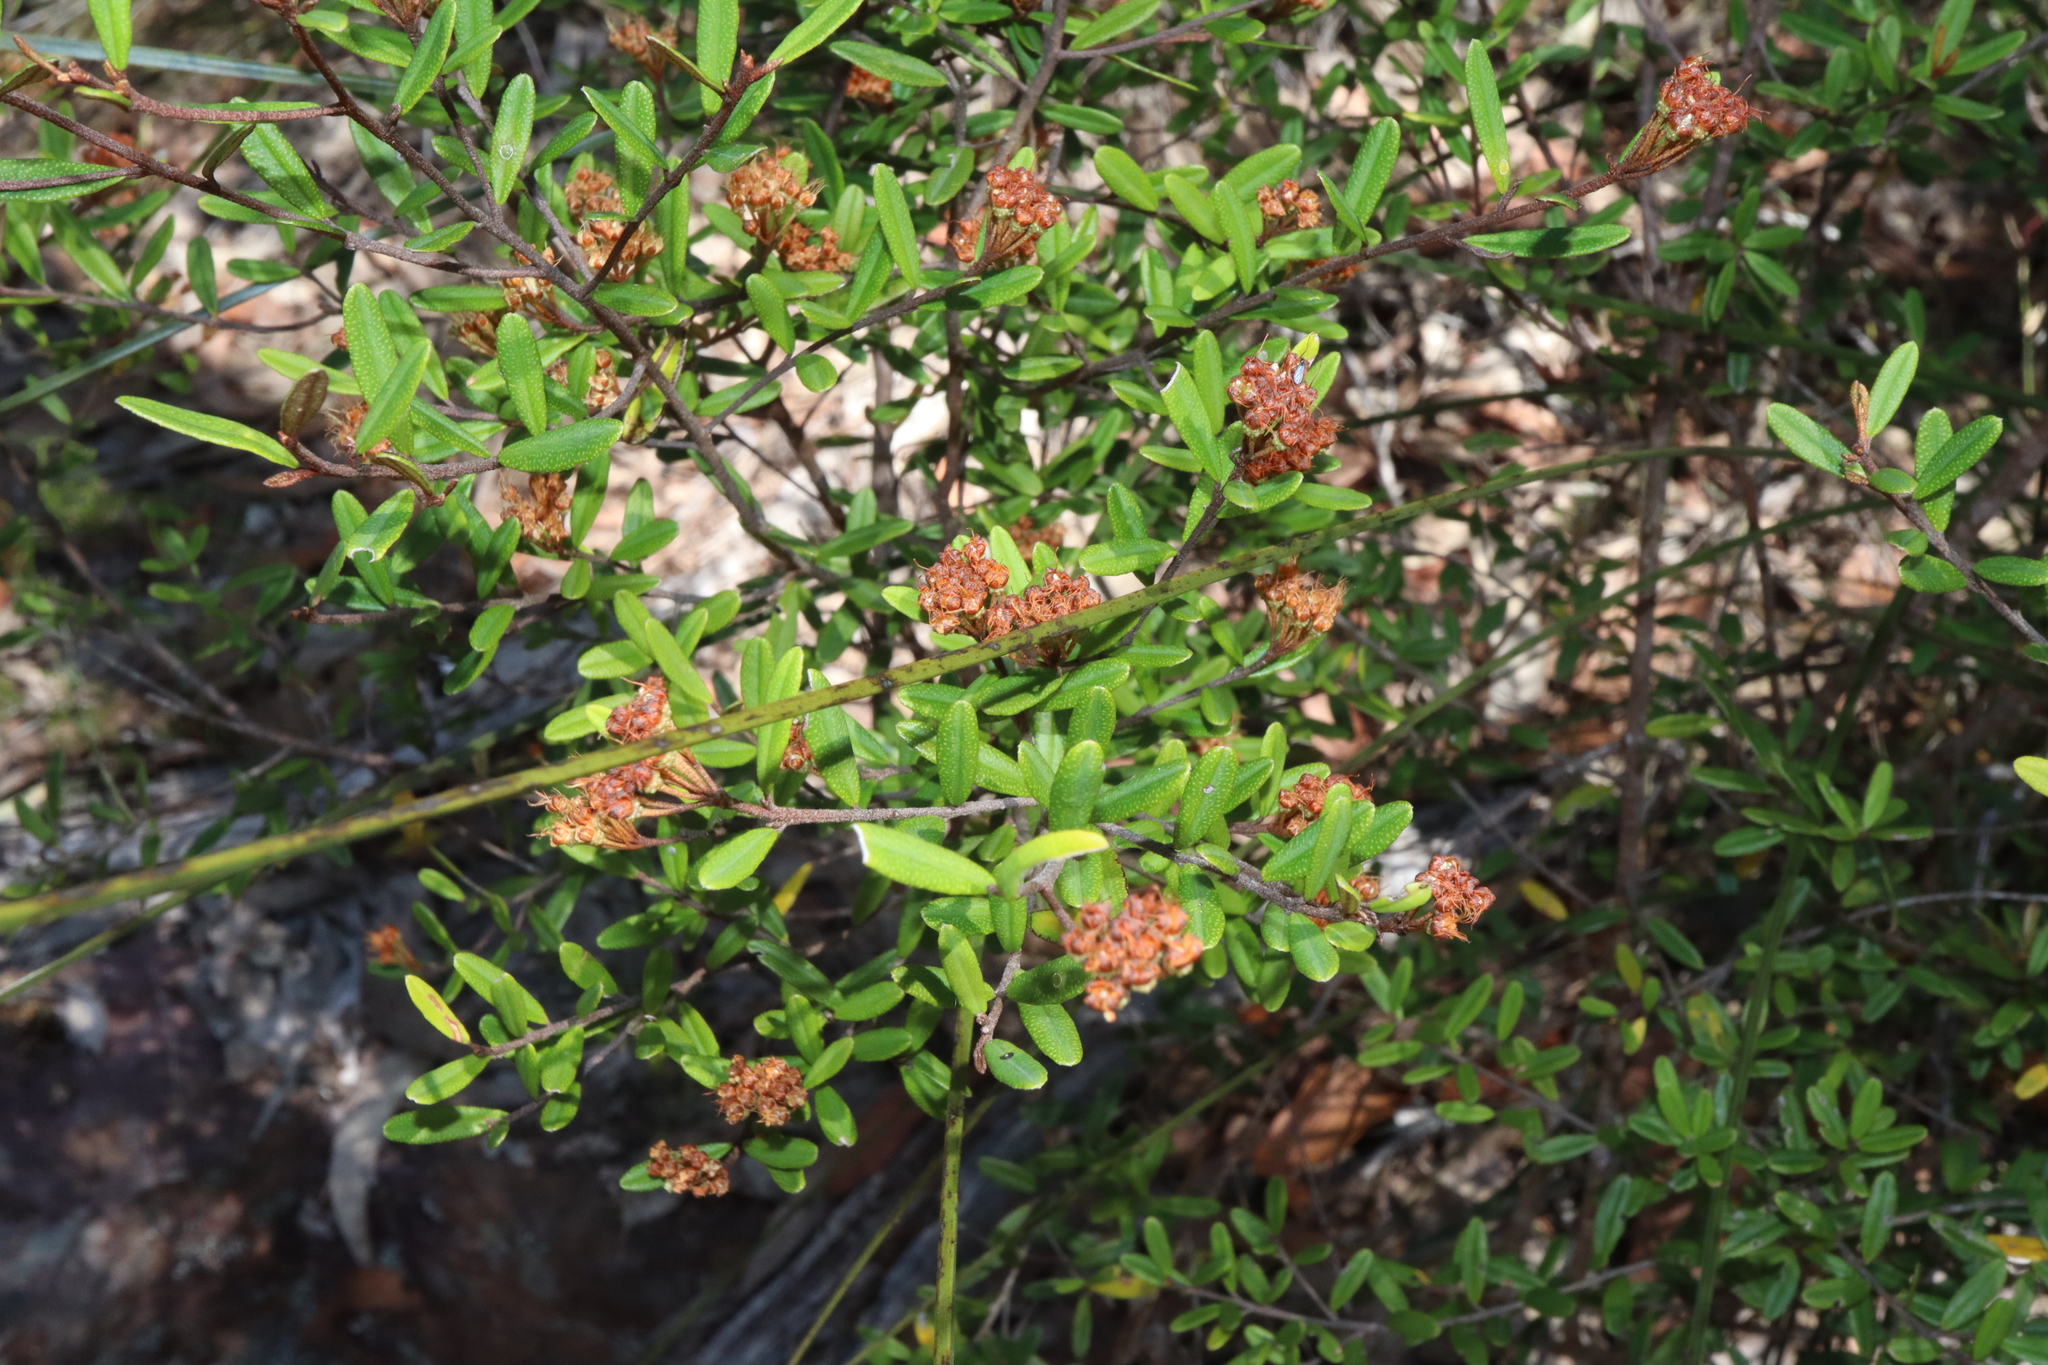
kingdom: Plantae
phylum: Tracheophyta
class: Magnoliopsida
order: Sapindales
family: Rutaceae
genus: Phebalium
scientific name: Phebalium squamulosum
